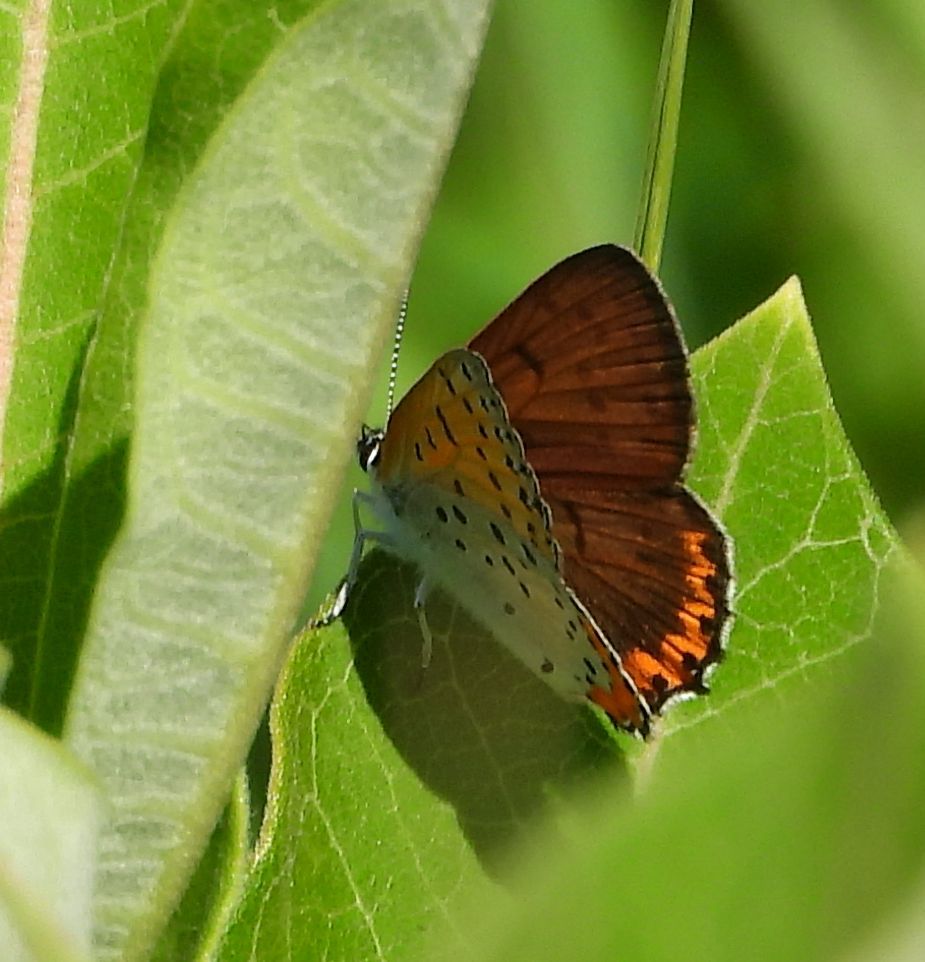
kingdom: Animalia
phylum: Arthropoda
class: Insecta
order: Lepidoptera
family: Lycaenidae
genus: Tharsalea
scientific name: Tharsalea hyllus
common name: Bronze copper
